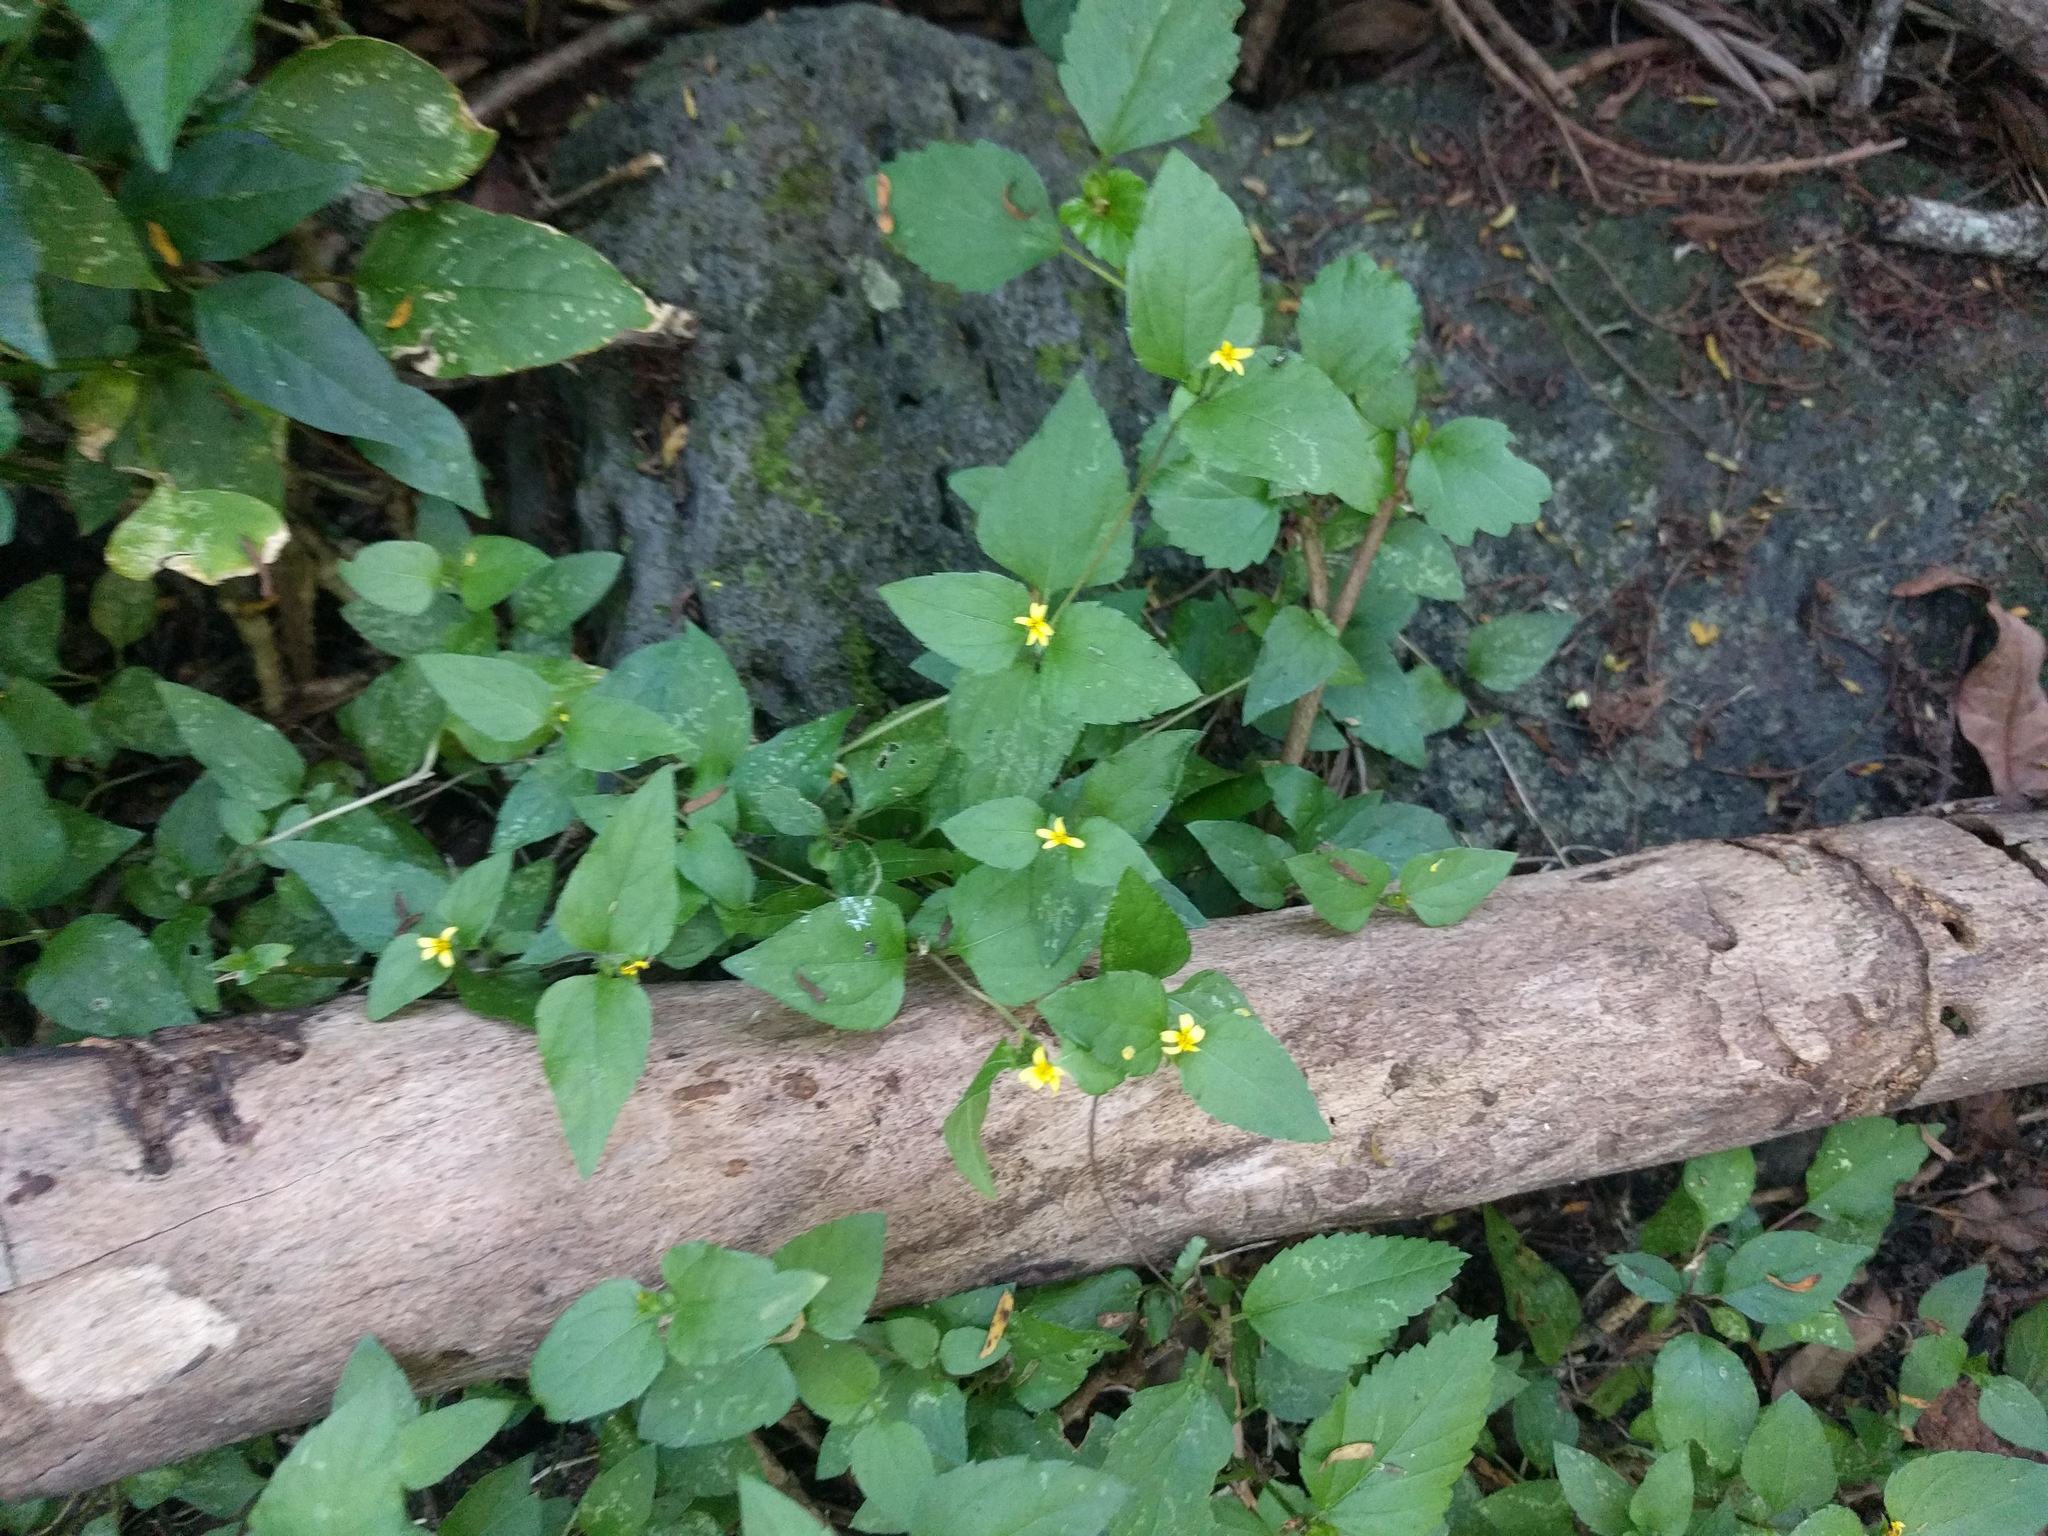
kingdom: Plantae
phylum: Tracheophyta
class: Magnoliopsida
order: Asterales
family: Asteraceae
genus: Calyptocarpus
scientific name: Calyptocarpus vialis
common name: Straggler daisy
